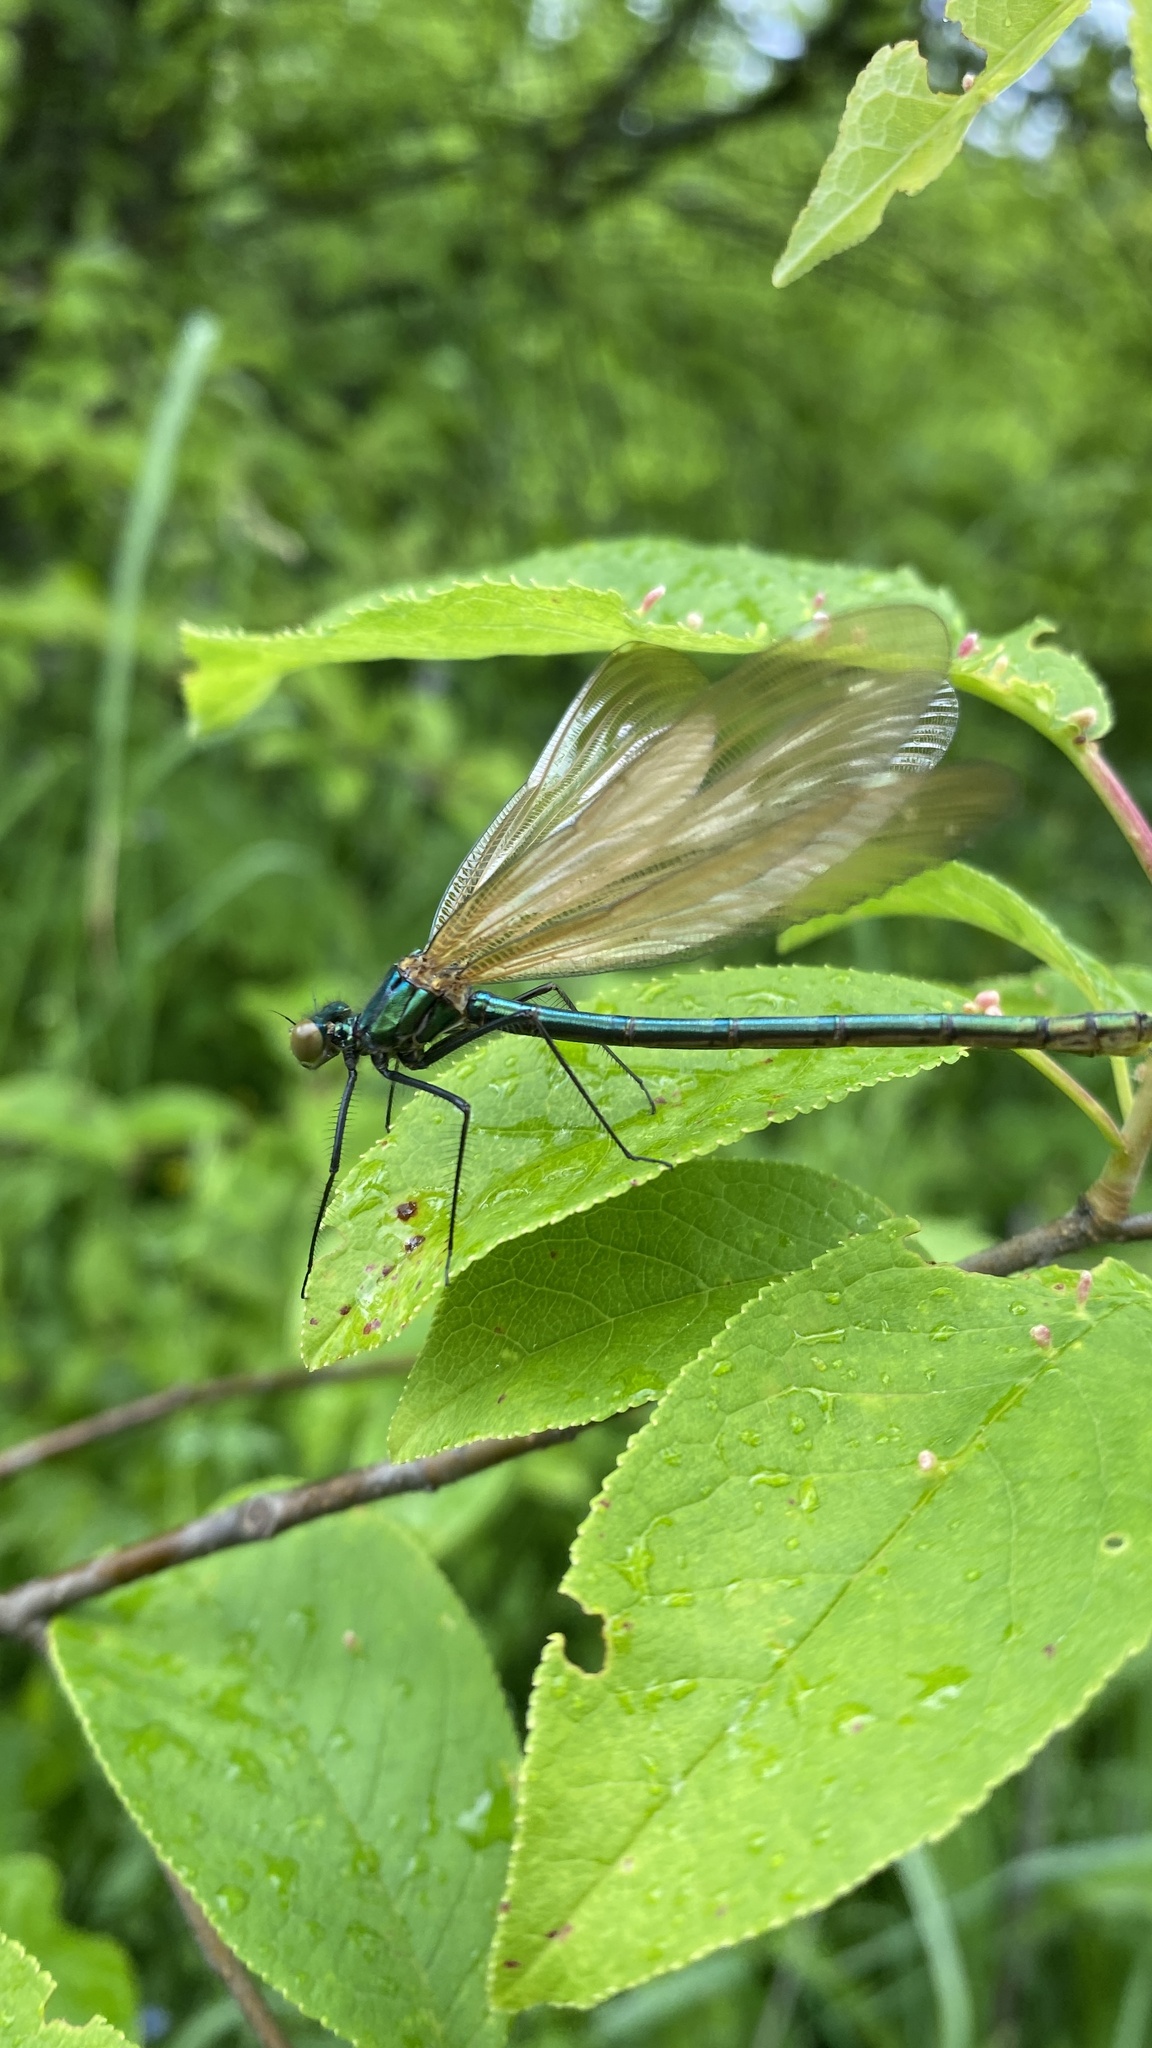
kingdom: Animalia
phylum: Arthropoda
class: Insecta
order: Odonata
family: Calopterygidae
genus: Calopteryx
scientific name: Calopteryx virgo
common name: Beautiful demoiselle
